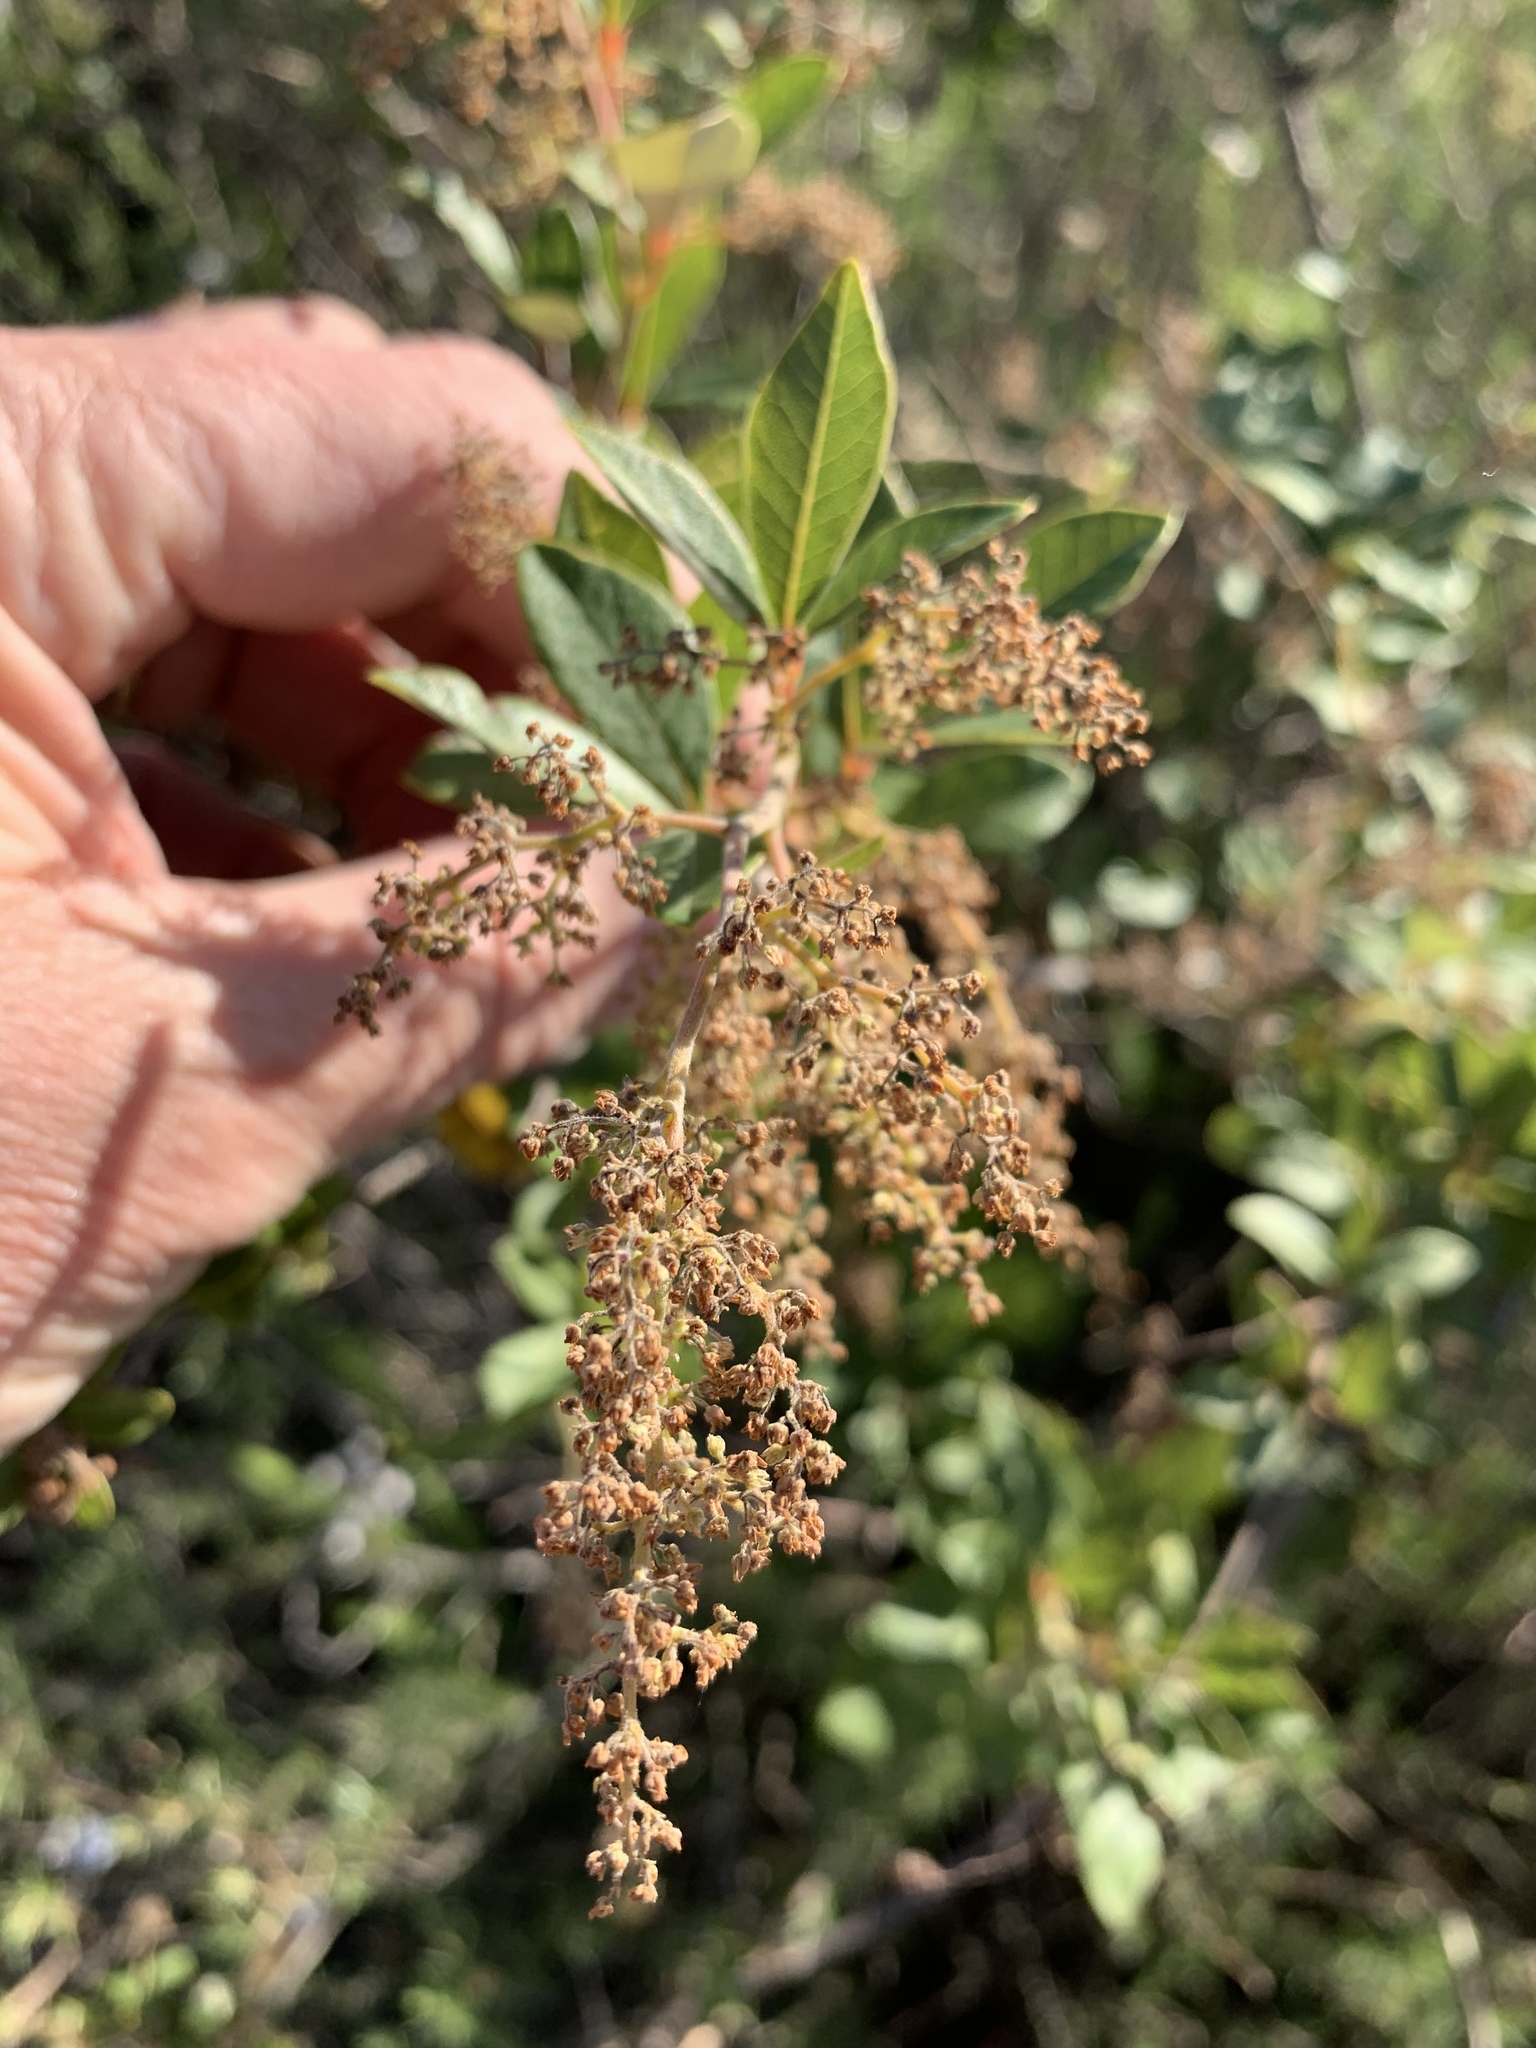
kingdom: Plantae
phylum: Tracheophyta
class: Magnoliopsida
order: Sapindales
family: Anacardiaceae
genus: Searsia
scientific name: Searsia tomentosa
